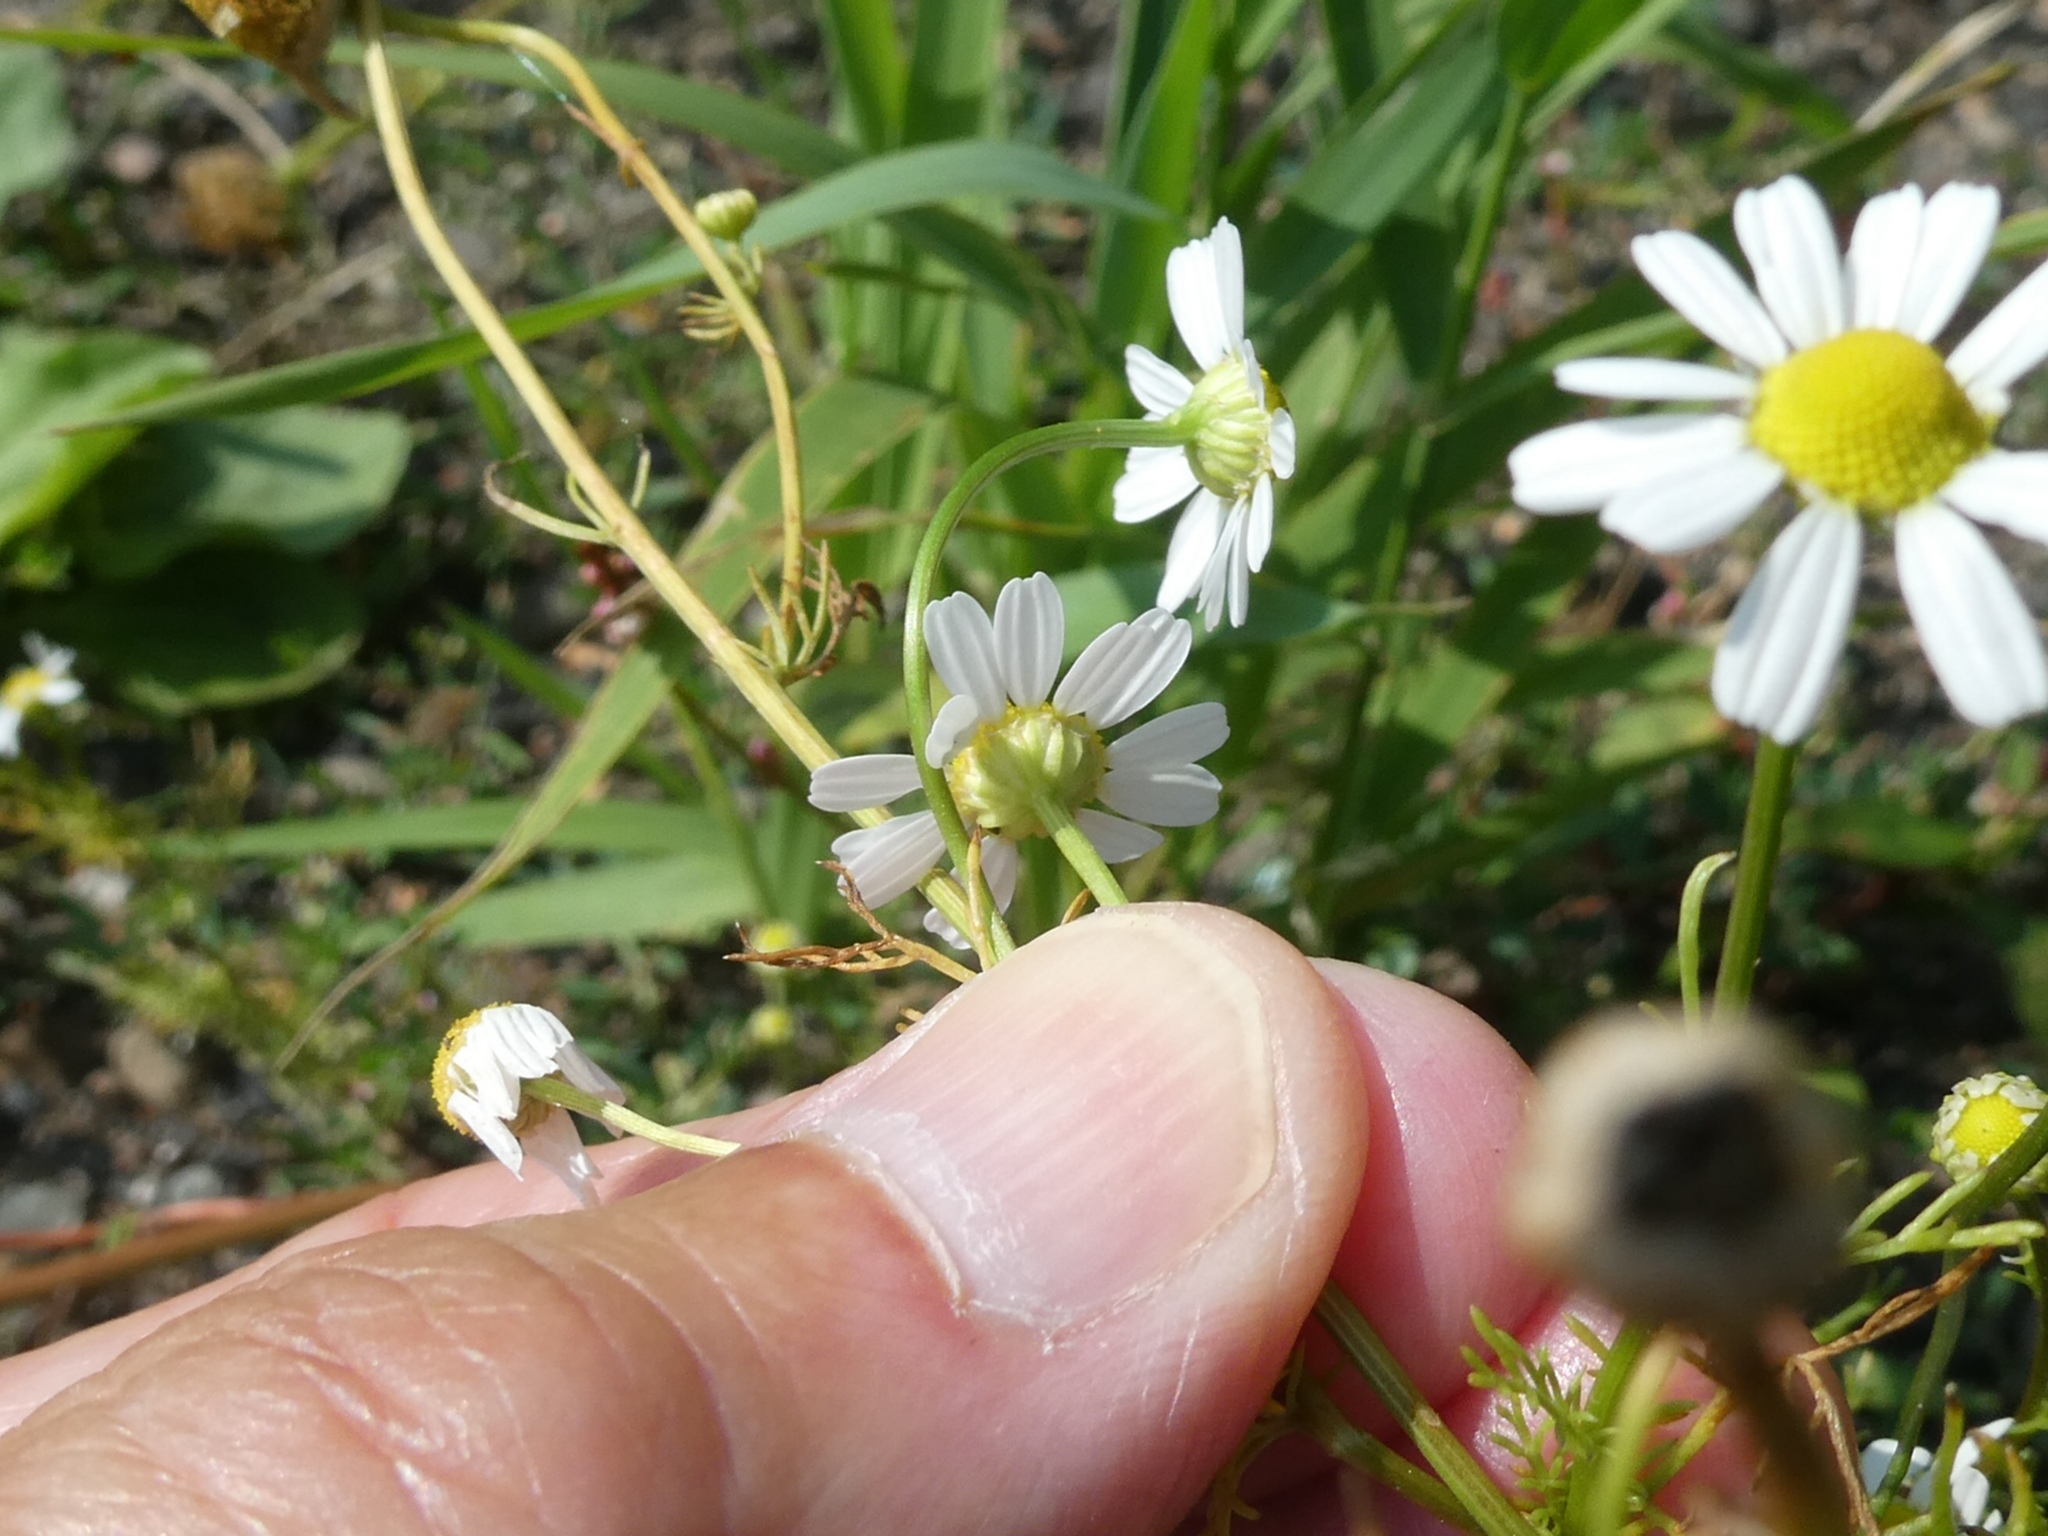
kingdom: Plantae
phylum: Tracheophyta
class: Magnoliopsida
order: Asterales
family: Asteraceae
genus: Matricaria
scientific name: Matricaria chamomilla
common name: Scented mayweed
